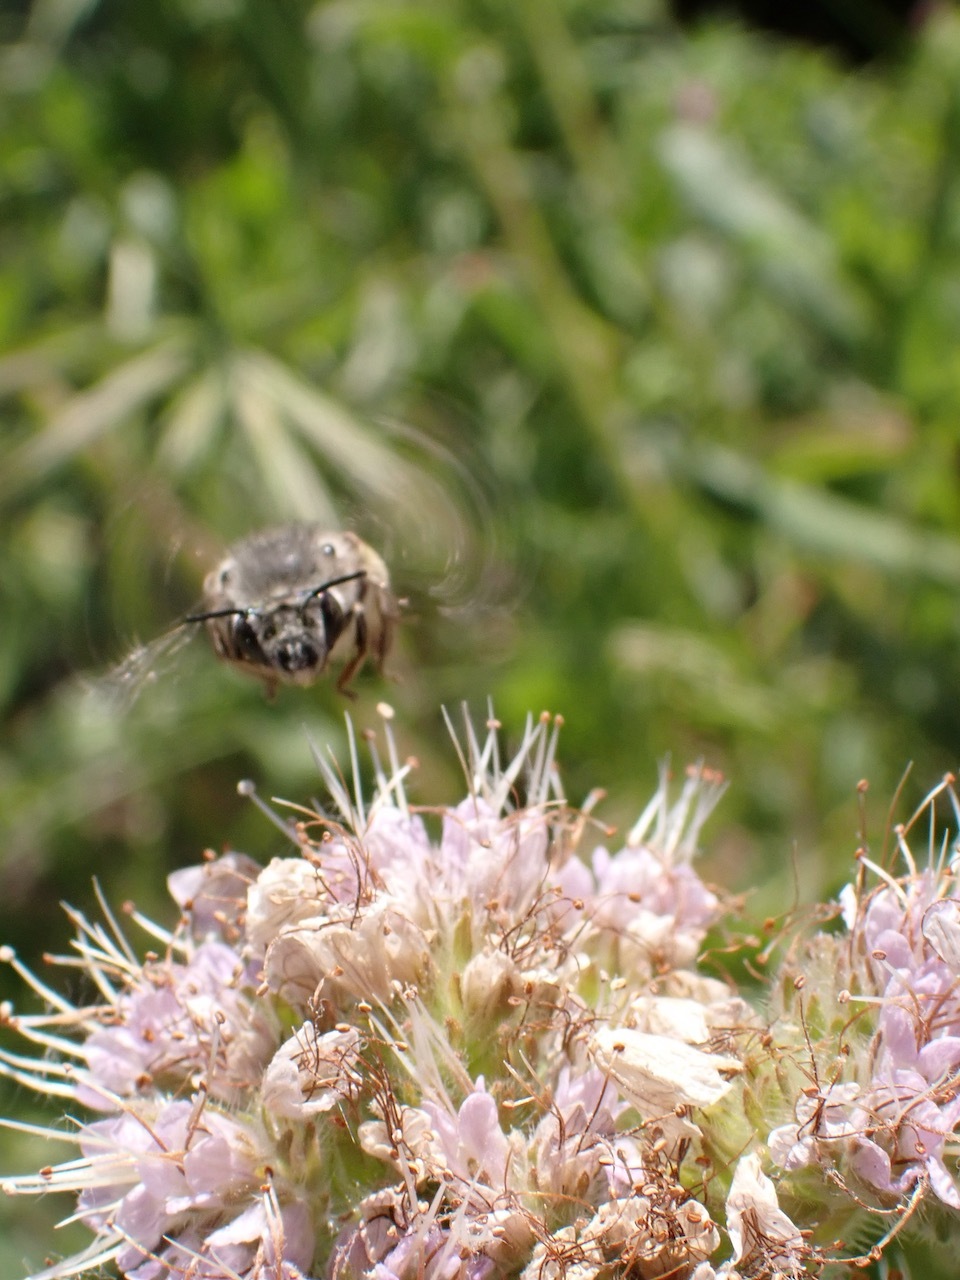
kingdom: Animalia
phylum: Arthropoda
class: Insecta
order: Hymenoptera
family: Apidae
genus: Habropoda
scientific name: Habropoda depressa
